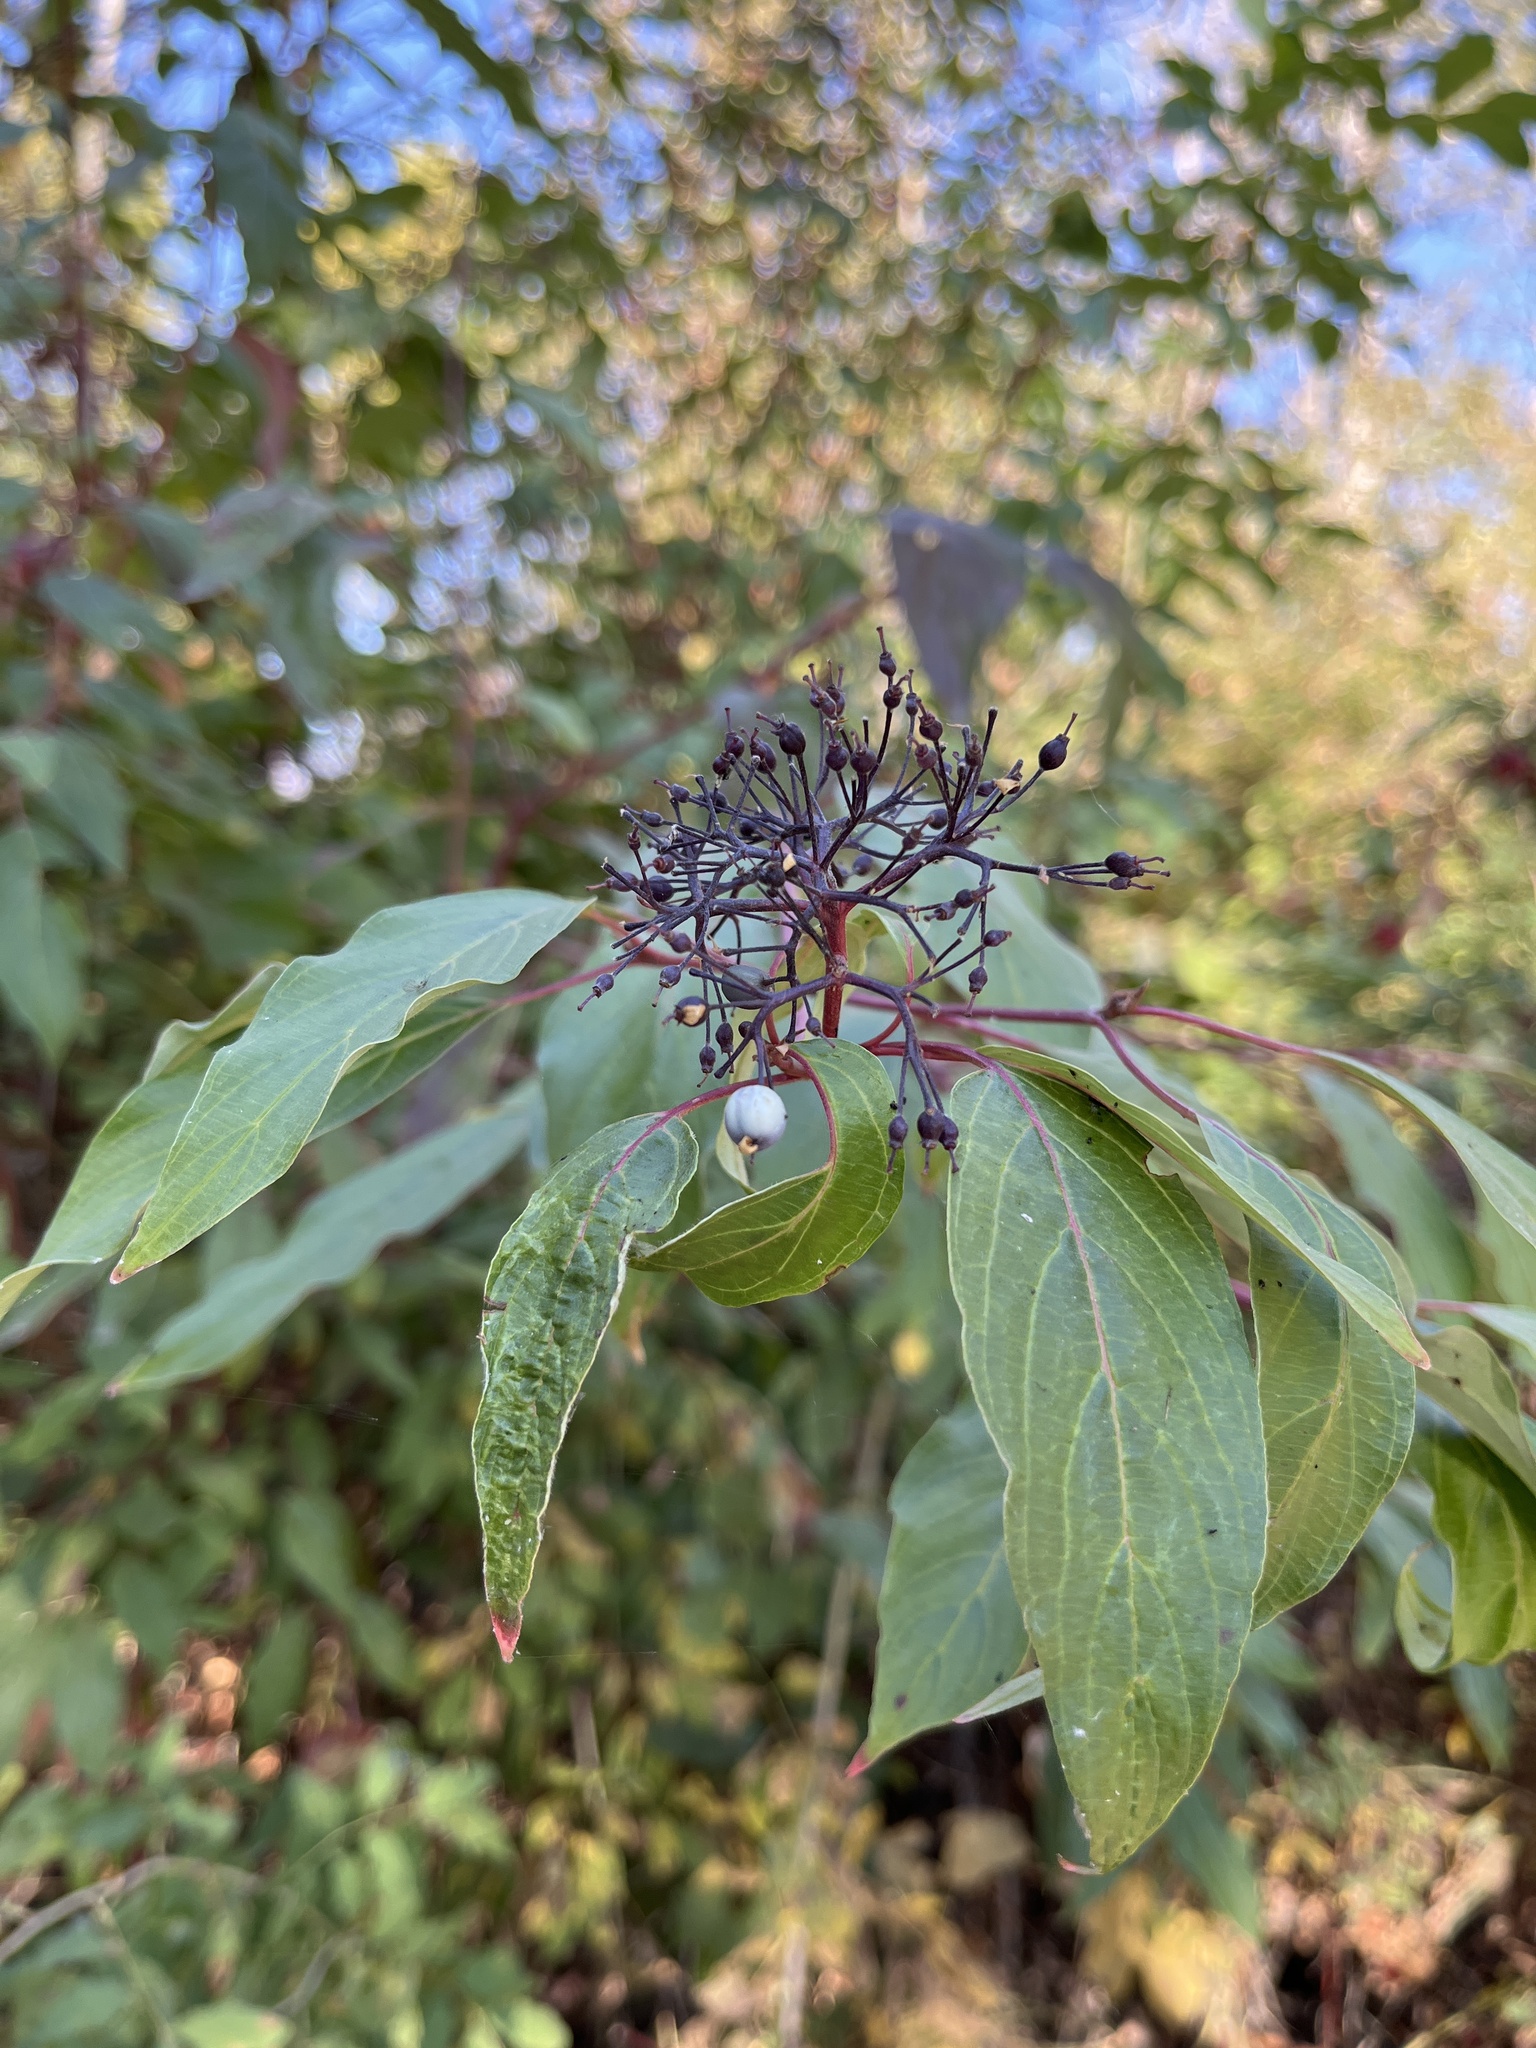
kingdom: Plantae
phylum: Tracheophyta
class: Magnoliopsida
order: Cornales
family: Cornaceae
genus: Cornus
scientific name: Cornus sericea
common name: Red-osier dogwood
